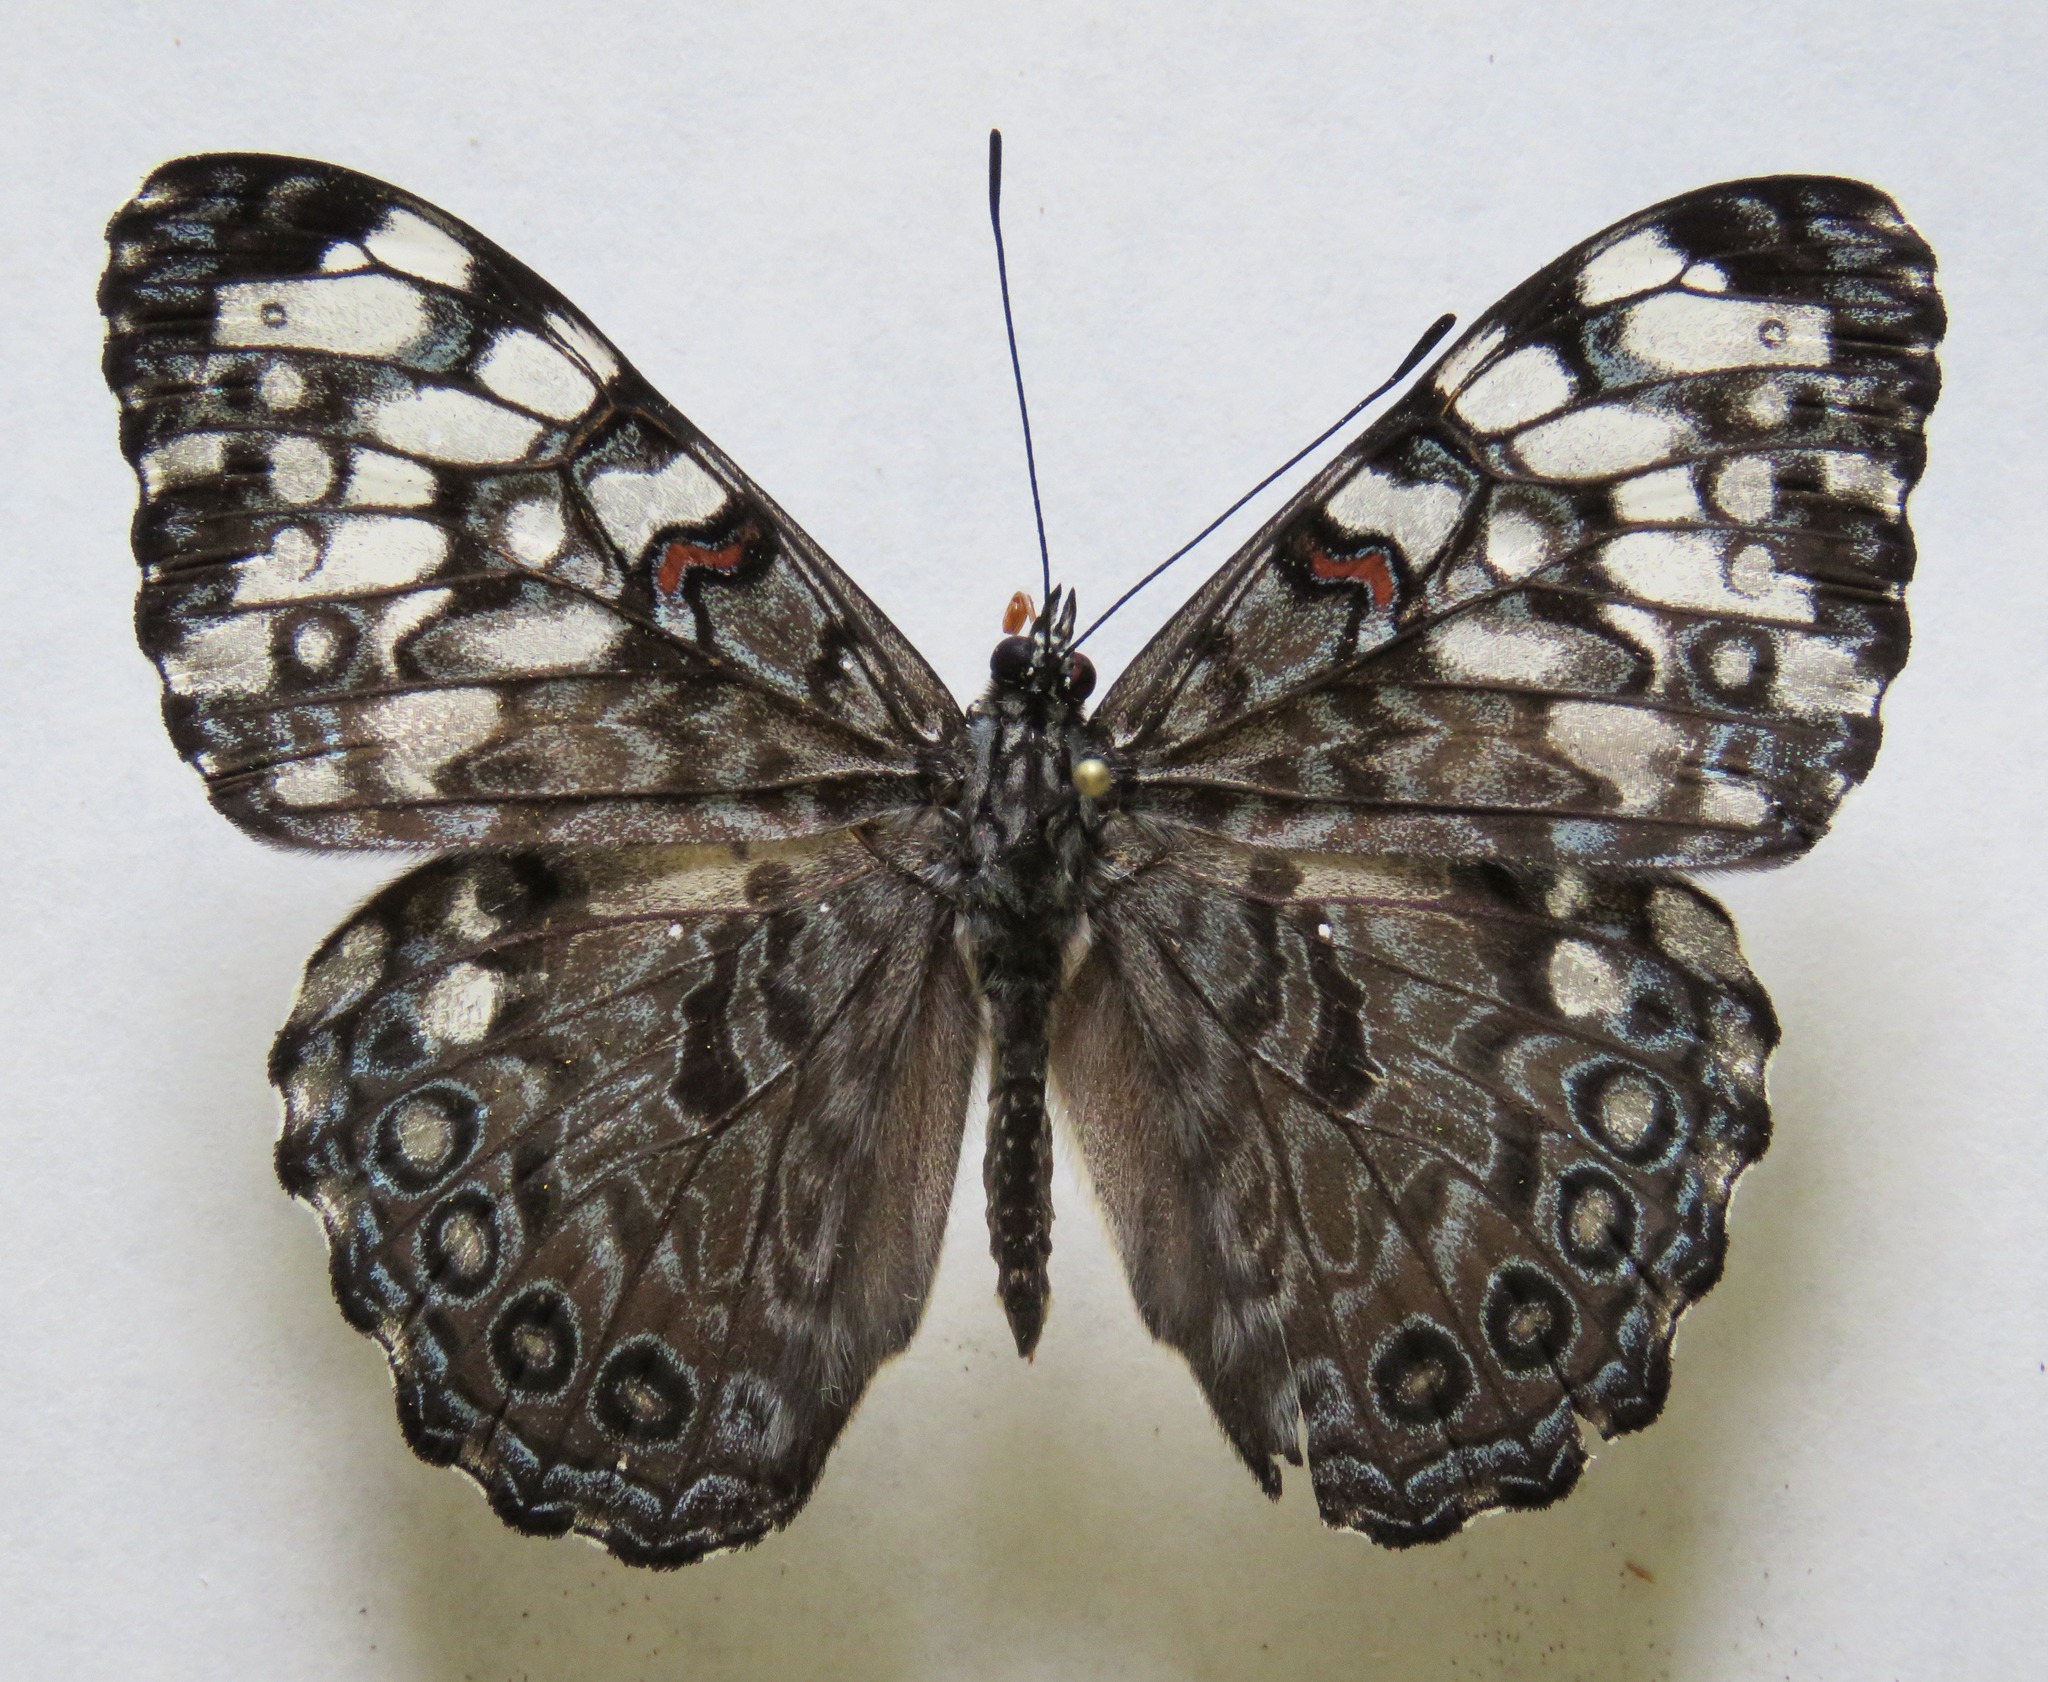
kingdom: Animalia
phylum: Arthropoda
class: Insecta
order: Lepidoptera
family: Nymphalidae
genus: Hamadryas
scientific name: Hamadryas guatemalena
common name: Guatemalan cracker
